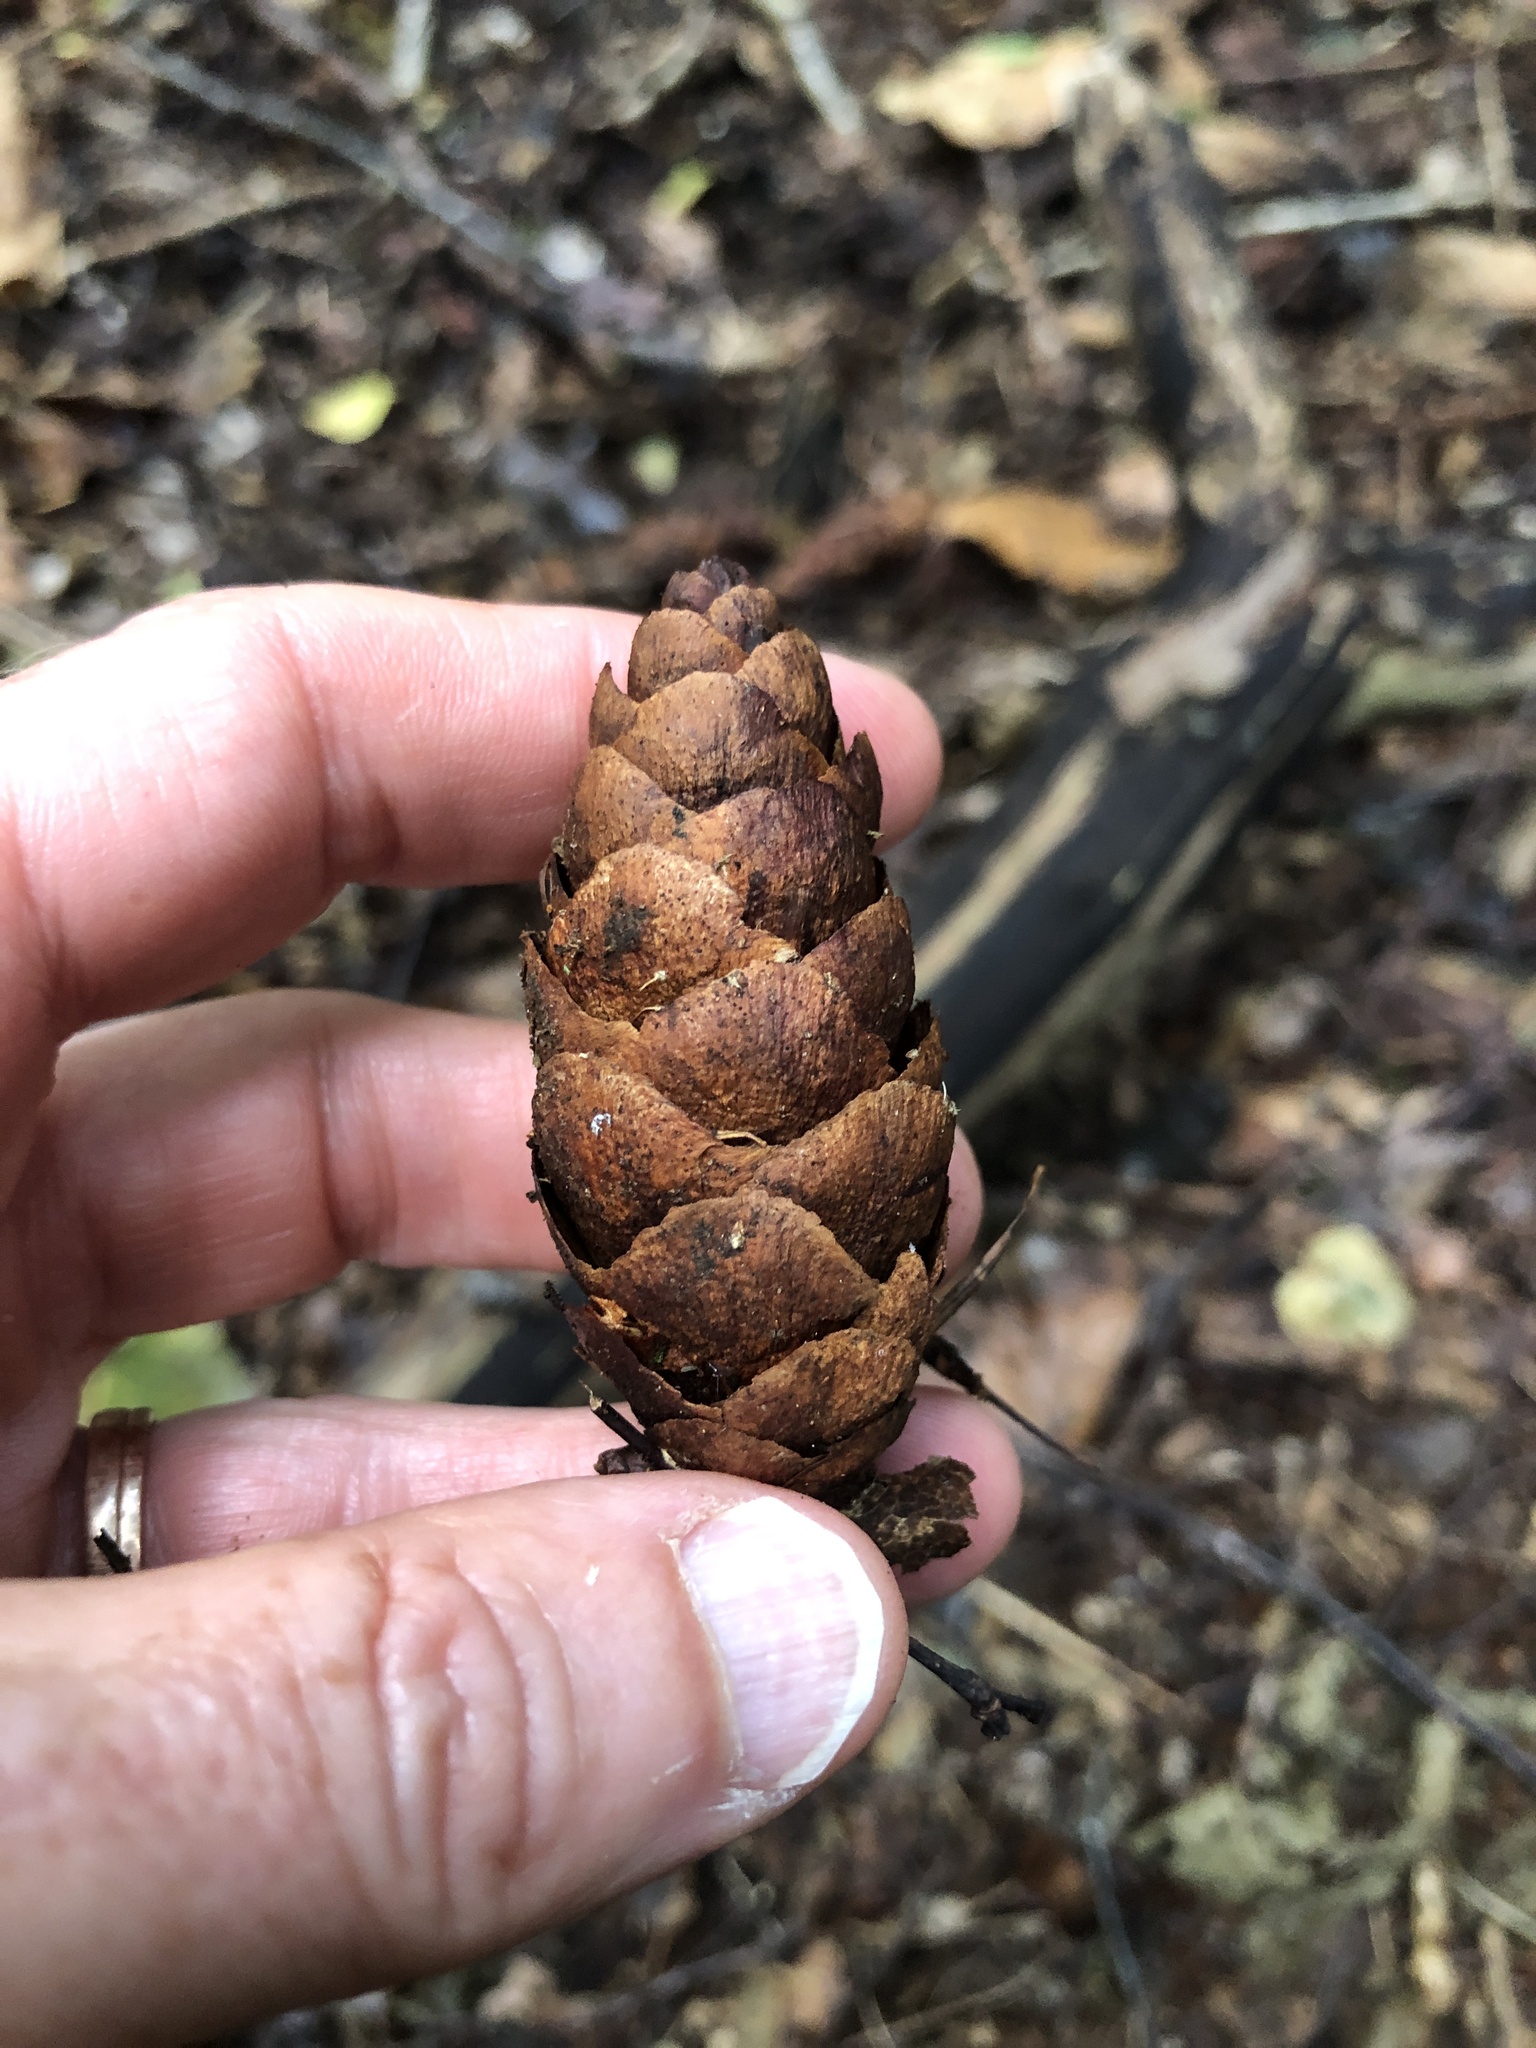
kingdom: Plantae
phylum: Tracheophyta
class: Pinopsida
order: Pinales
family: Pinaceae
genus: Pseudotsuga
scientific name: Pseudotsuga menziesii
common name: Douglas fir
